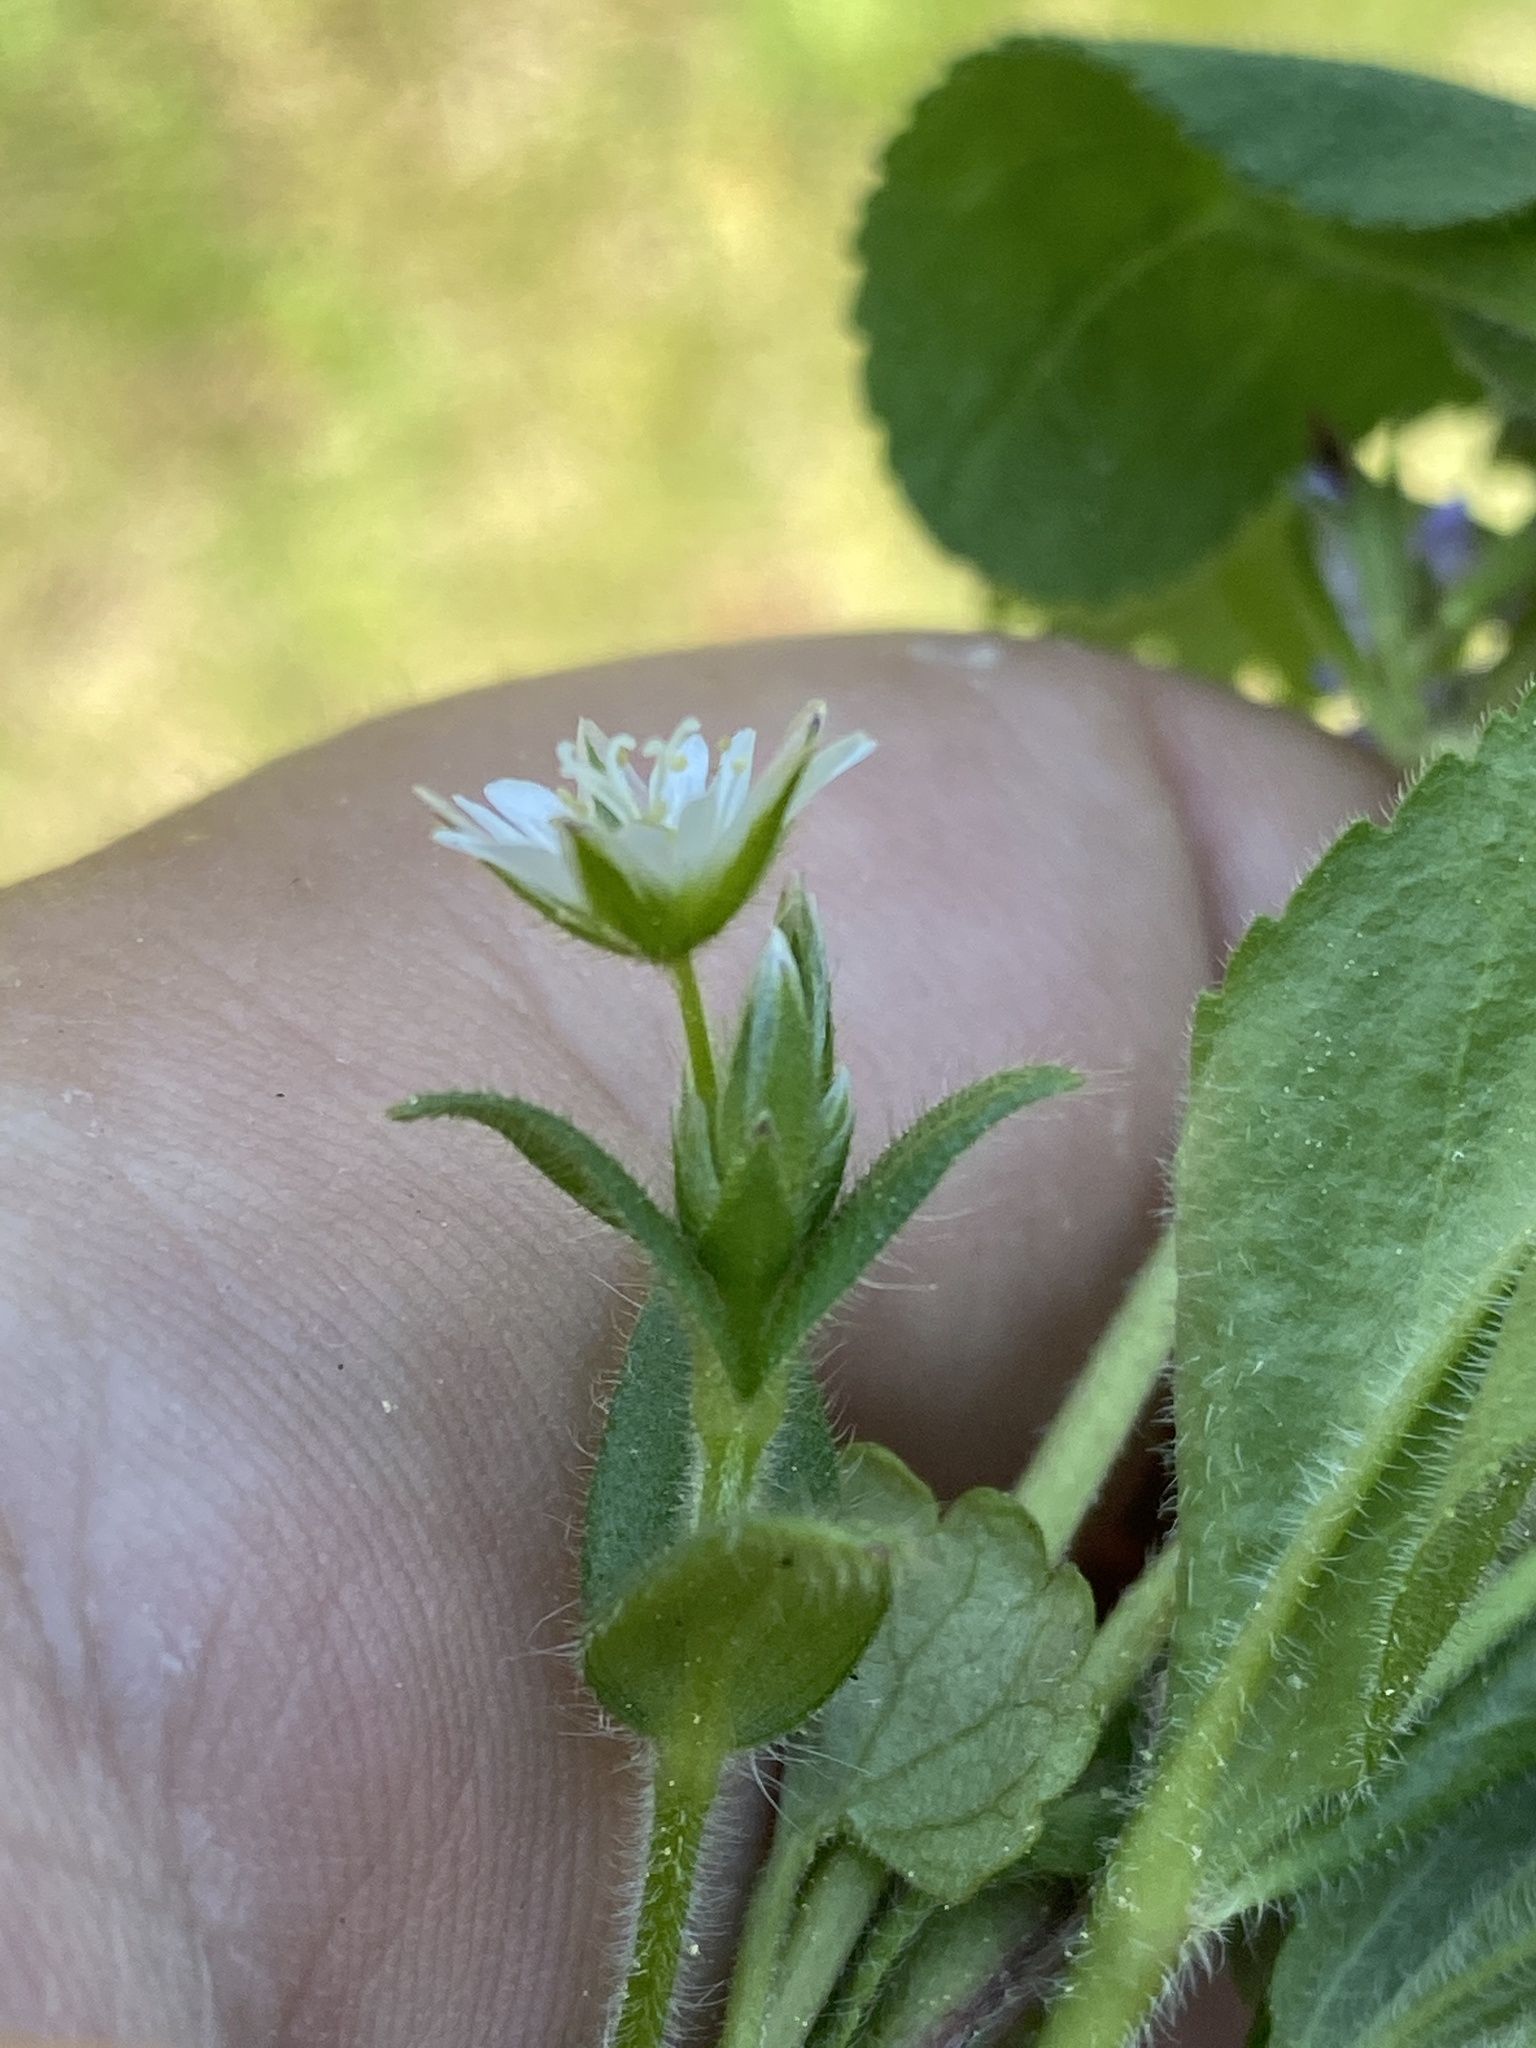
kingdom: Plantae
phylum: Tracheophyta
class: Magnoliopsida
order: Caryophyllales
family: Caryophyllaceae
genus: Cerastium
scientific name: Cerastium holosteoides
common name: Big chickweed
